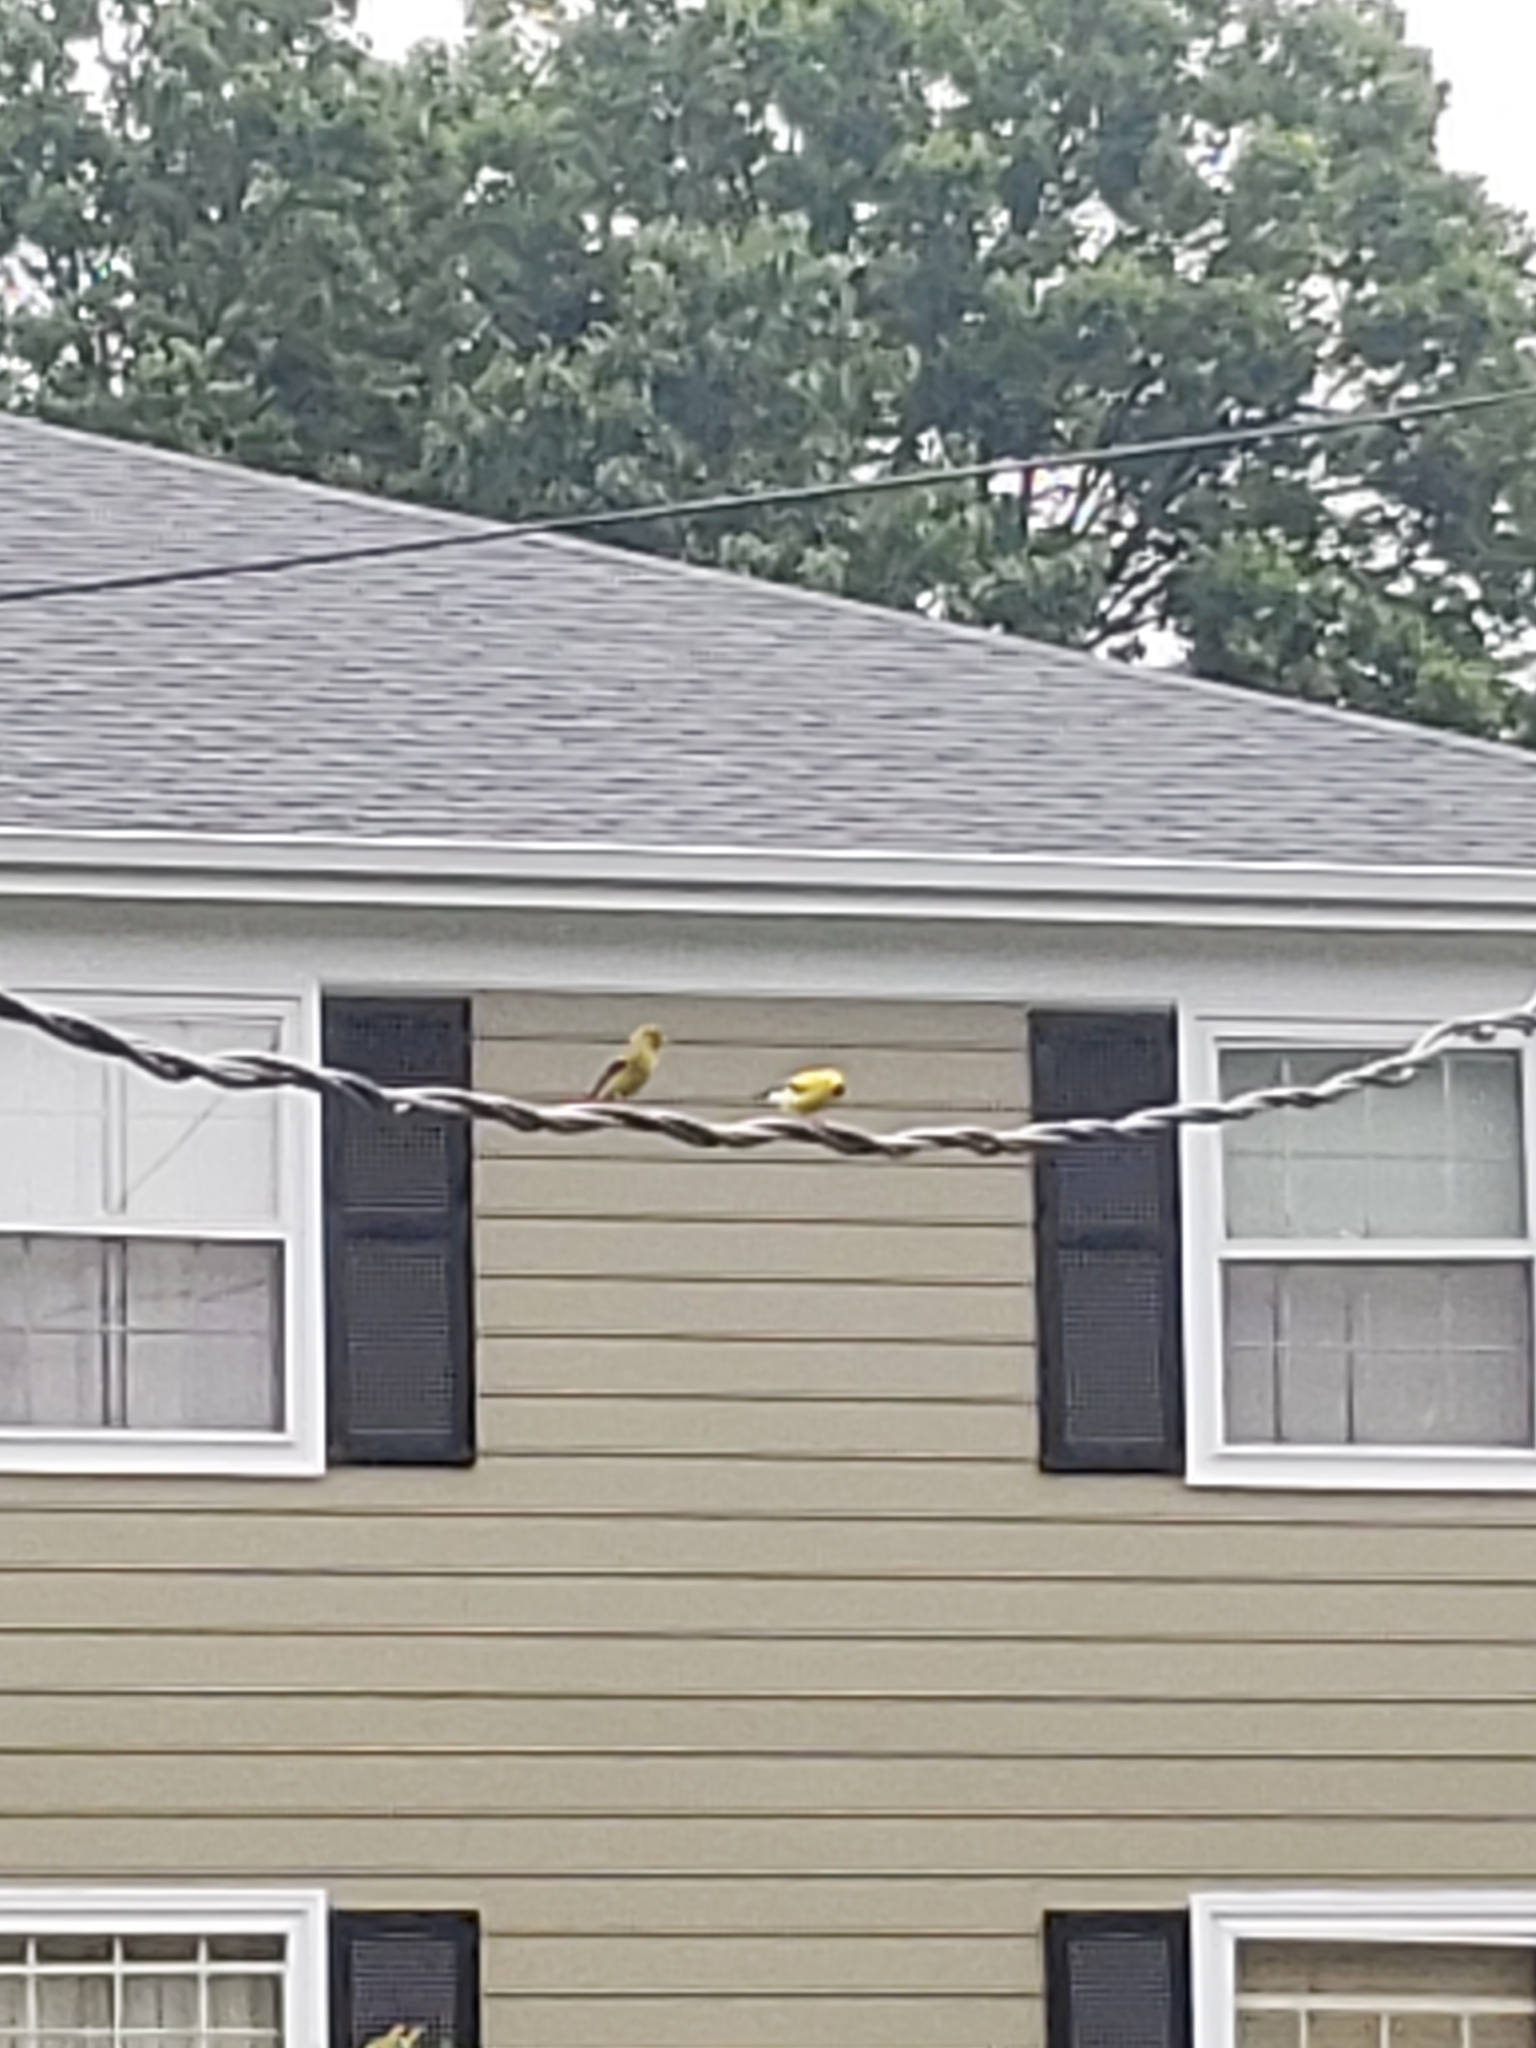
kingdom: Animalia
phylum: Chordata
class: Aves
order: Passeriformes
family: Fringillidae
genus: Spinus
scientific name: Spinus tristis
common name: American goldfinch
